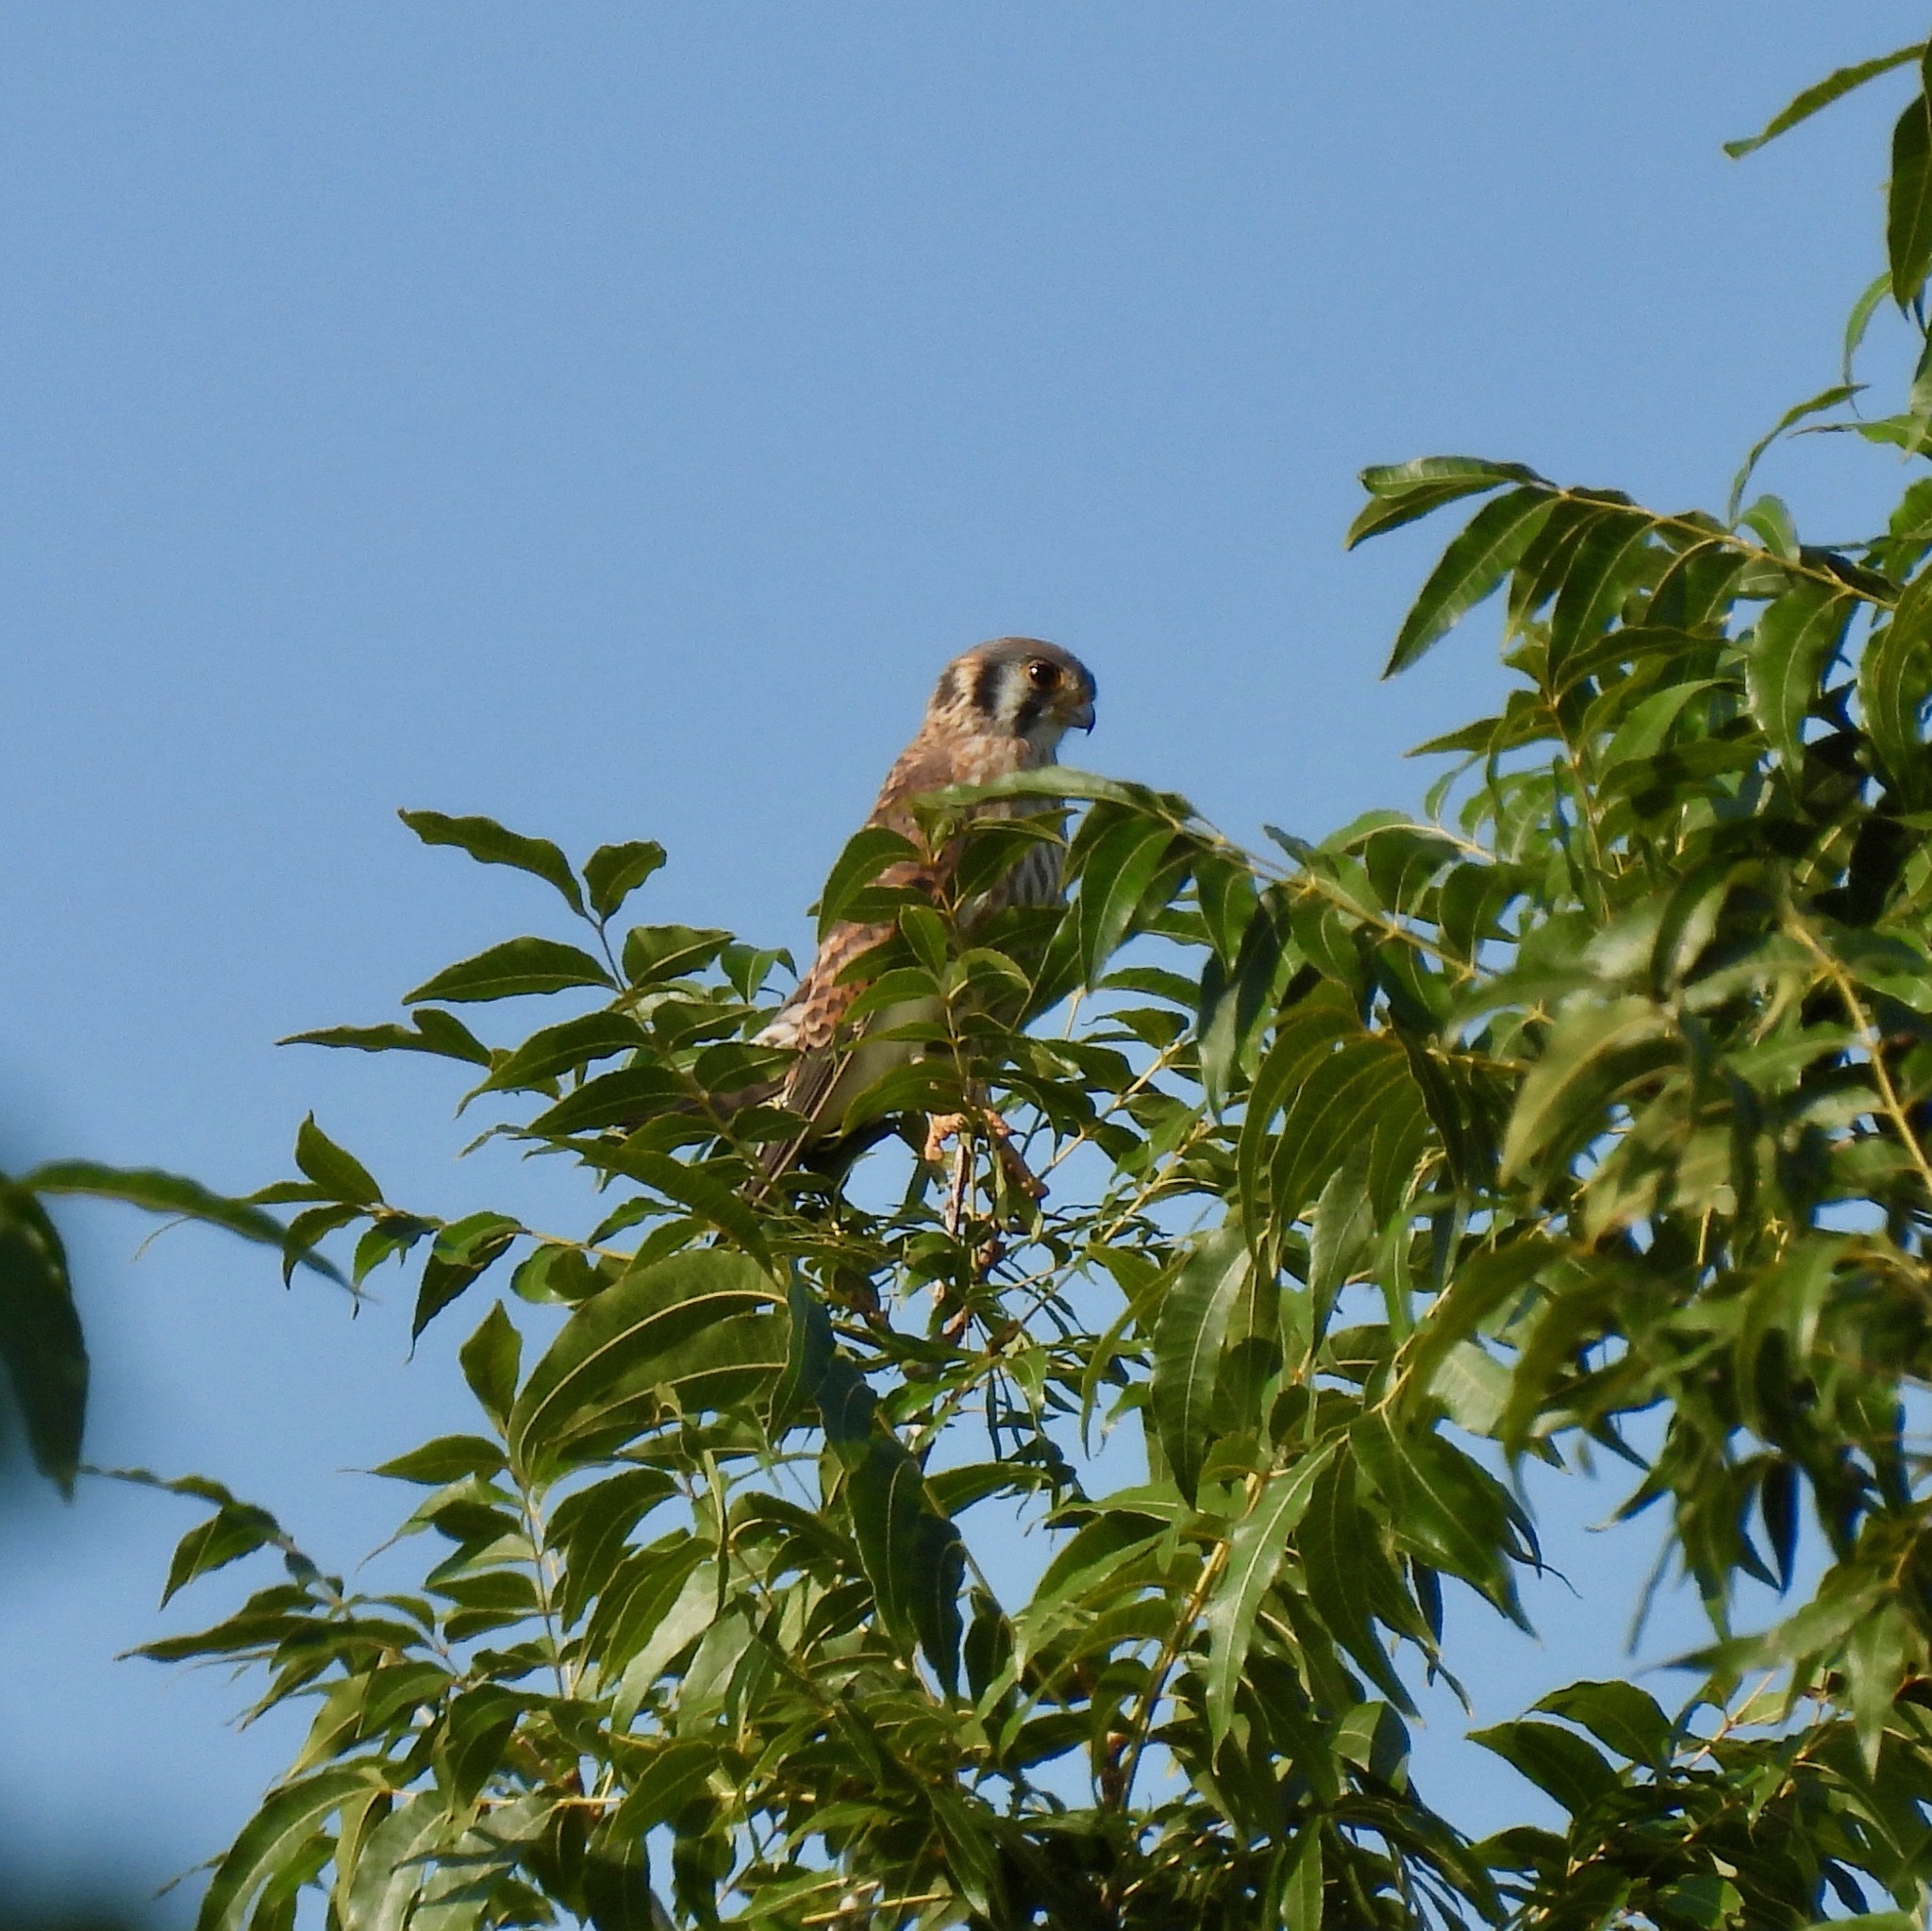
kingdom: Animalia
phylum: Chordata
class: Aves
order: Falconiformes
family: Falconidae
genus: Falco
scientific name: Falco sparverius
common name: American kestrel
